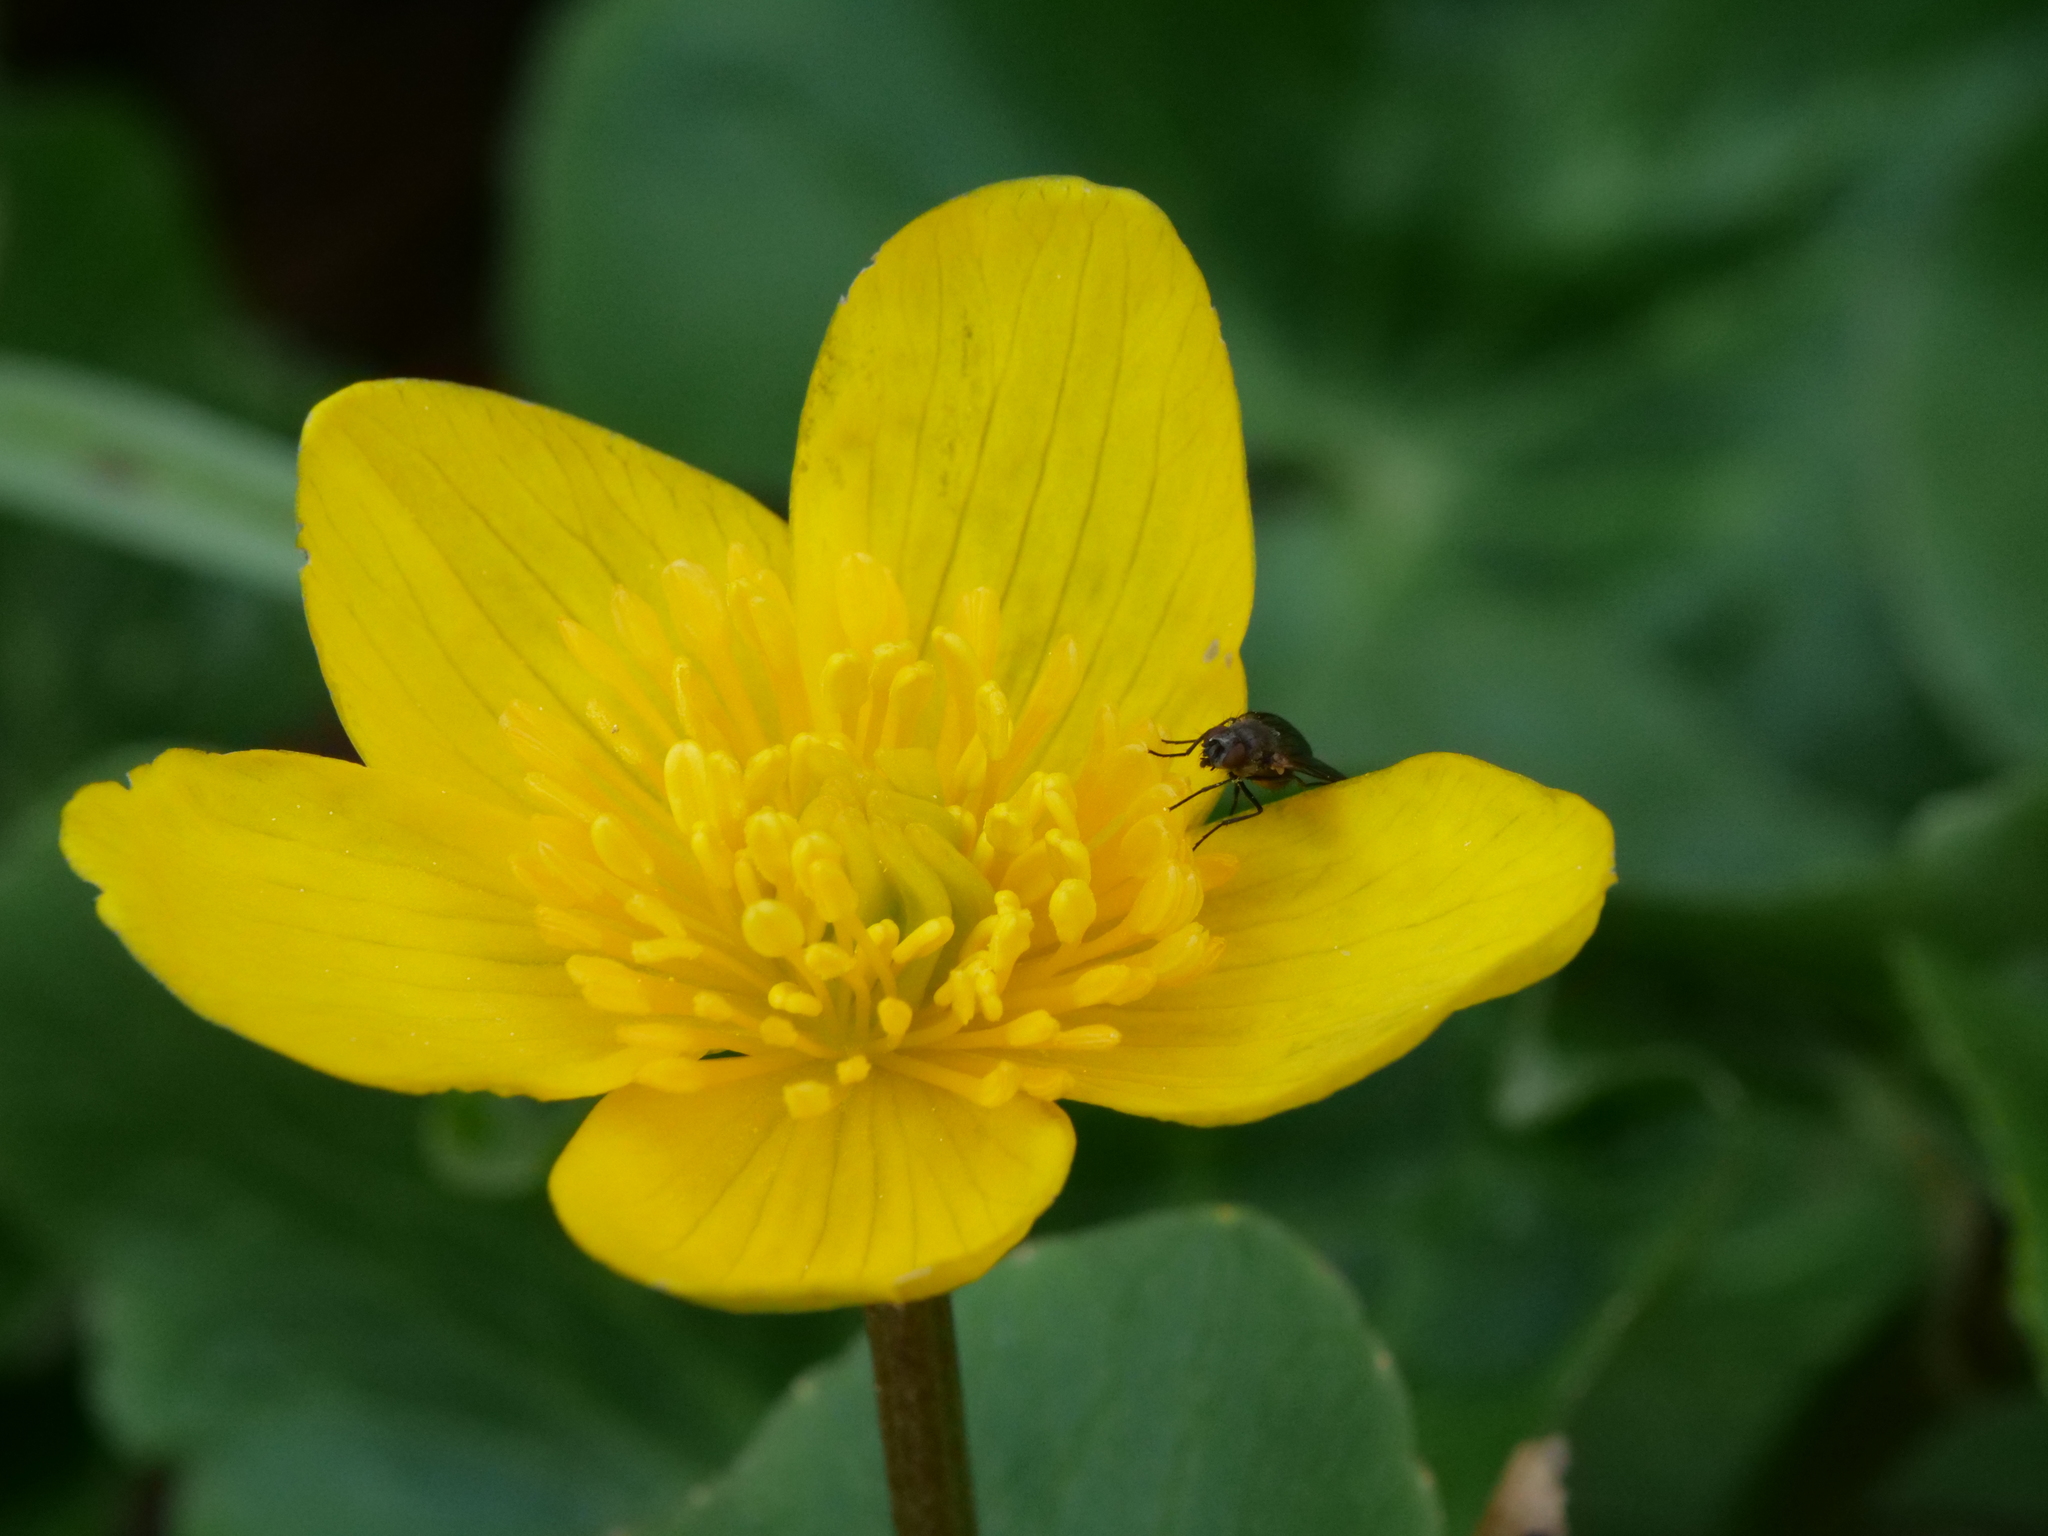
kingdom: Plantae
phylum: Tracheophyta
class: Magnoliopsida
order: Ranunculales
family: Ranunculaceae
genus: Caltha
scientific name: Caltha palustris
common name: Marsh marigold
